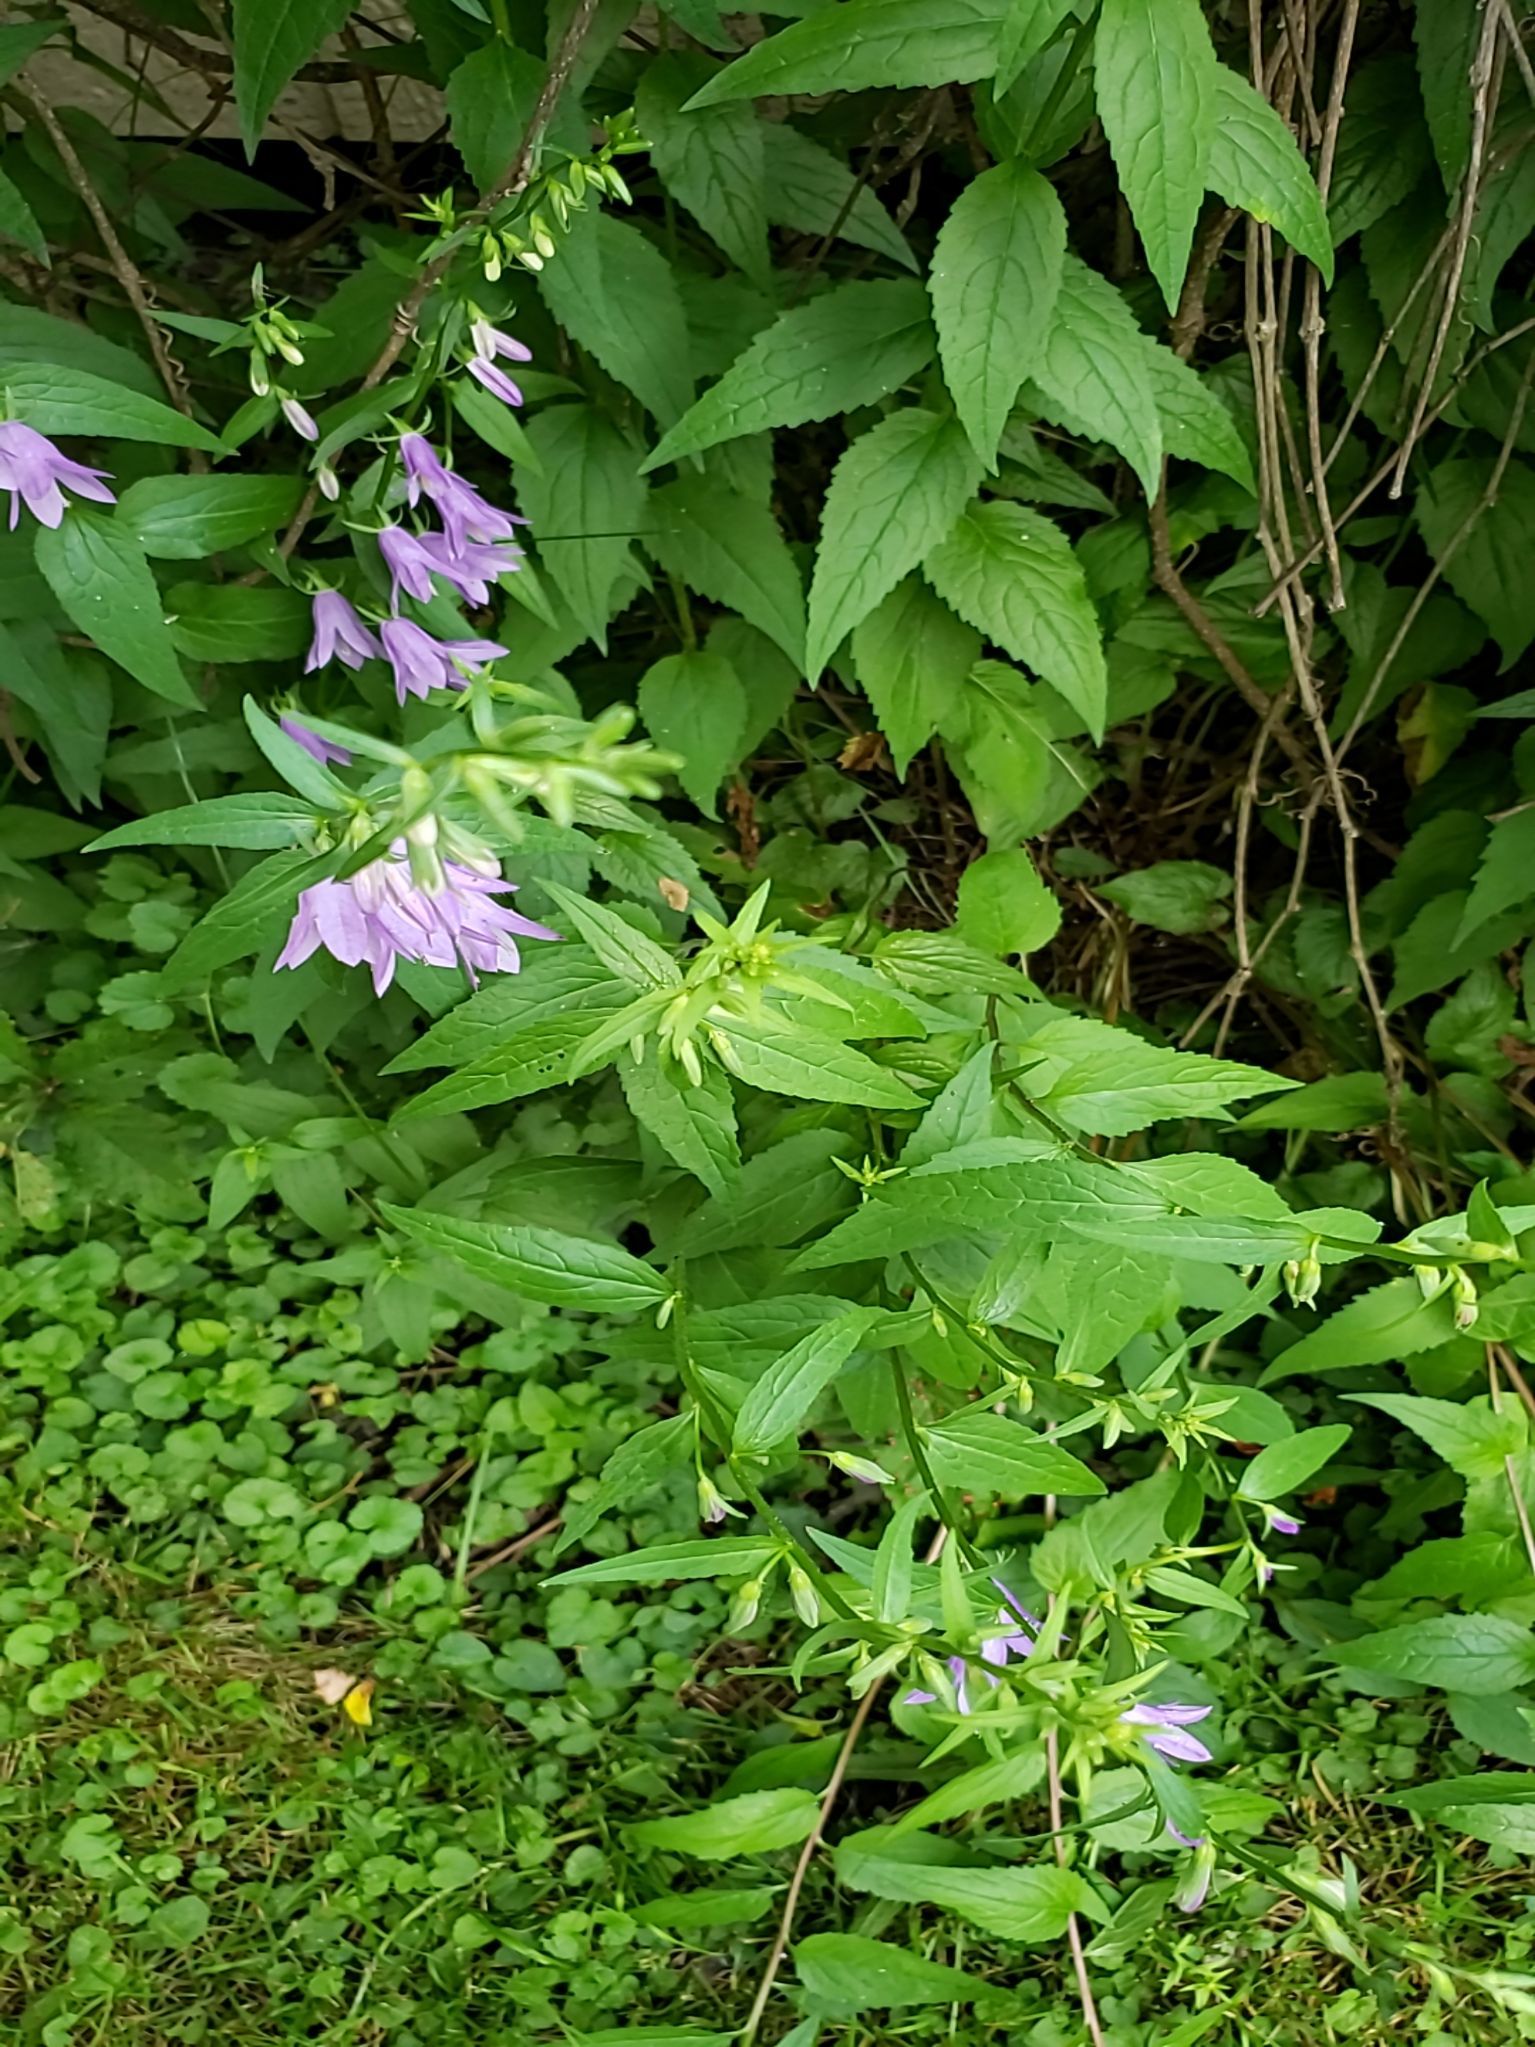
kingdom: Plantae
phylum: Tracheophyta
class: Magnoliopsida
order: Asterales
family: Campanulaceae
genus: Campanula
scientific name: Campanula rapunculoides
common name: Creeping bellflower
